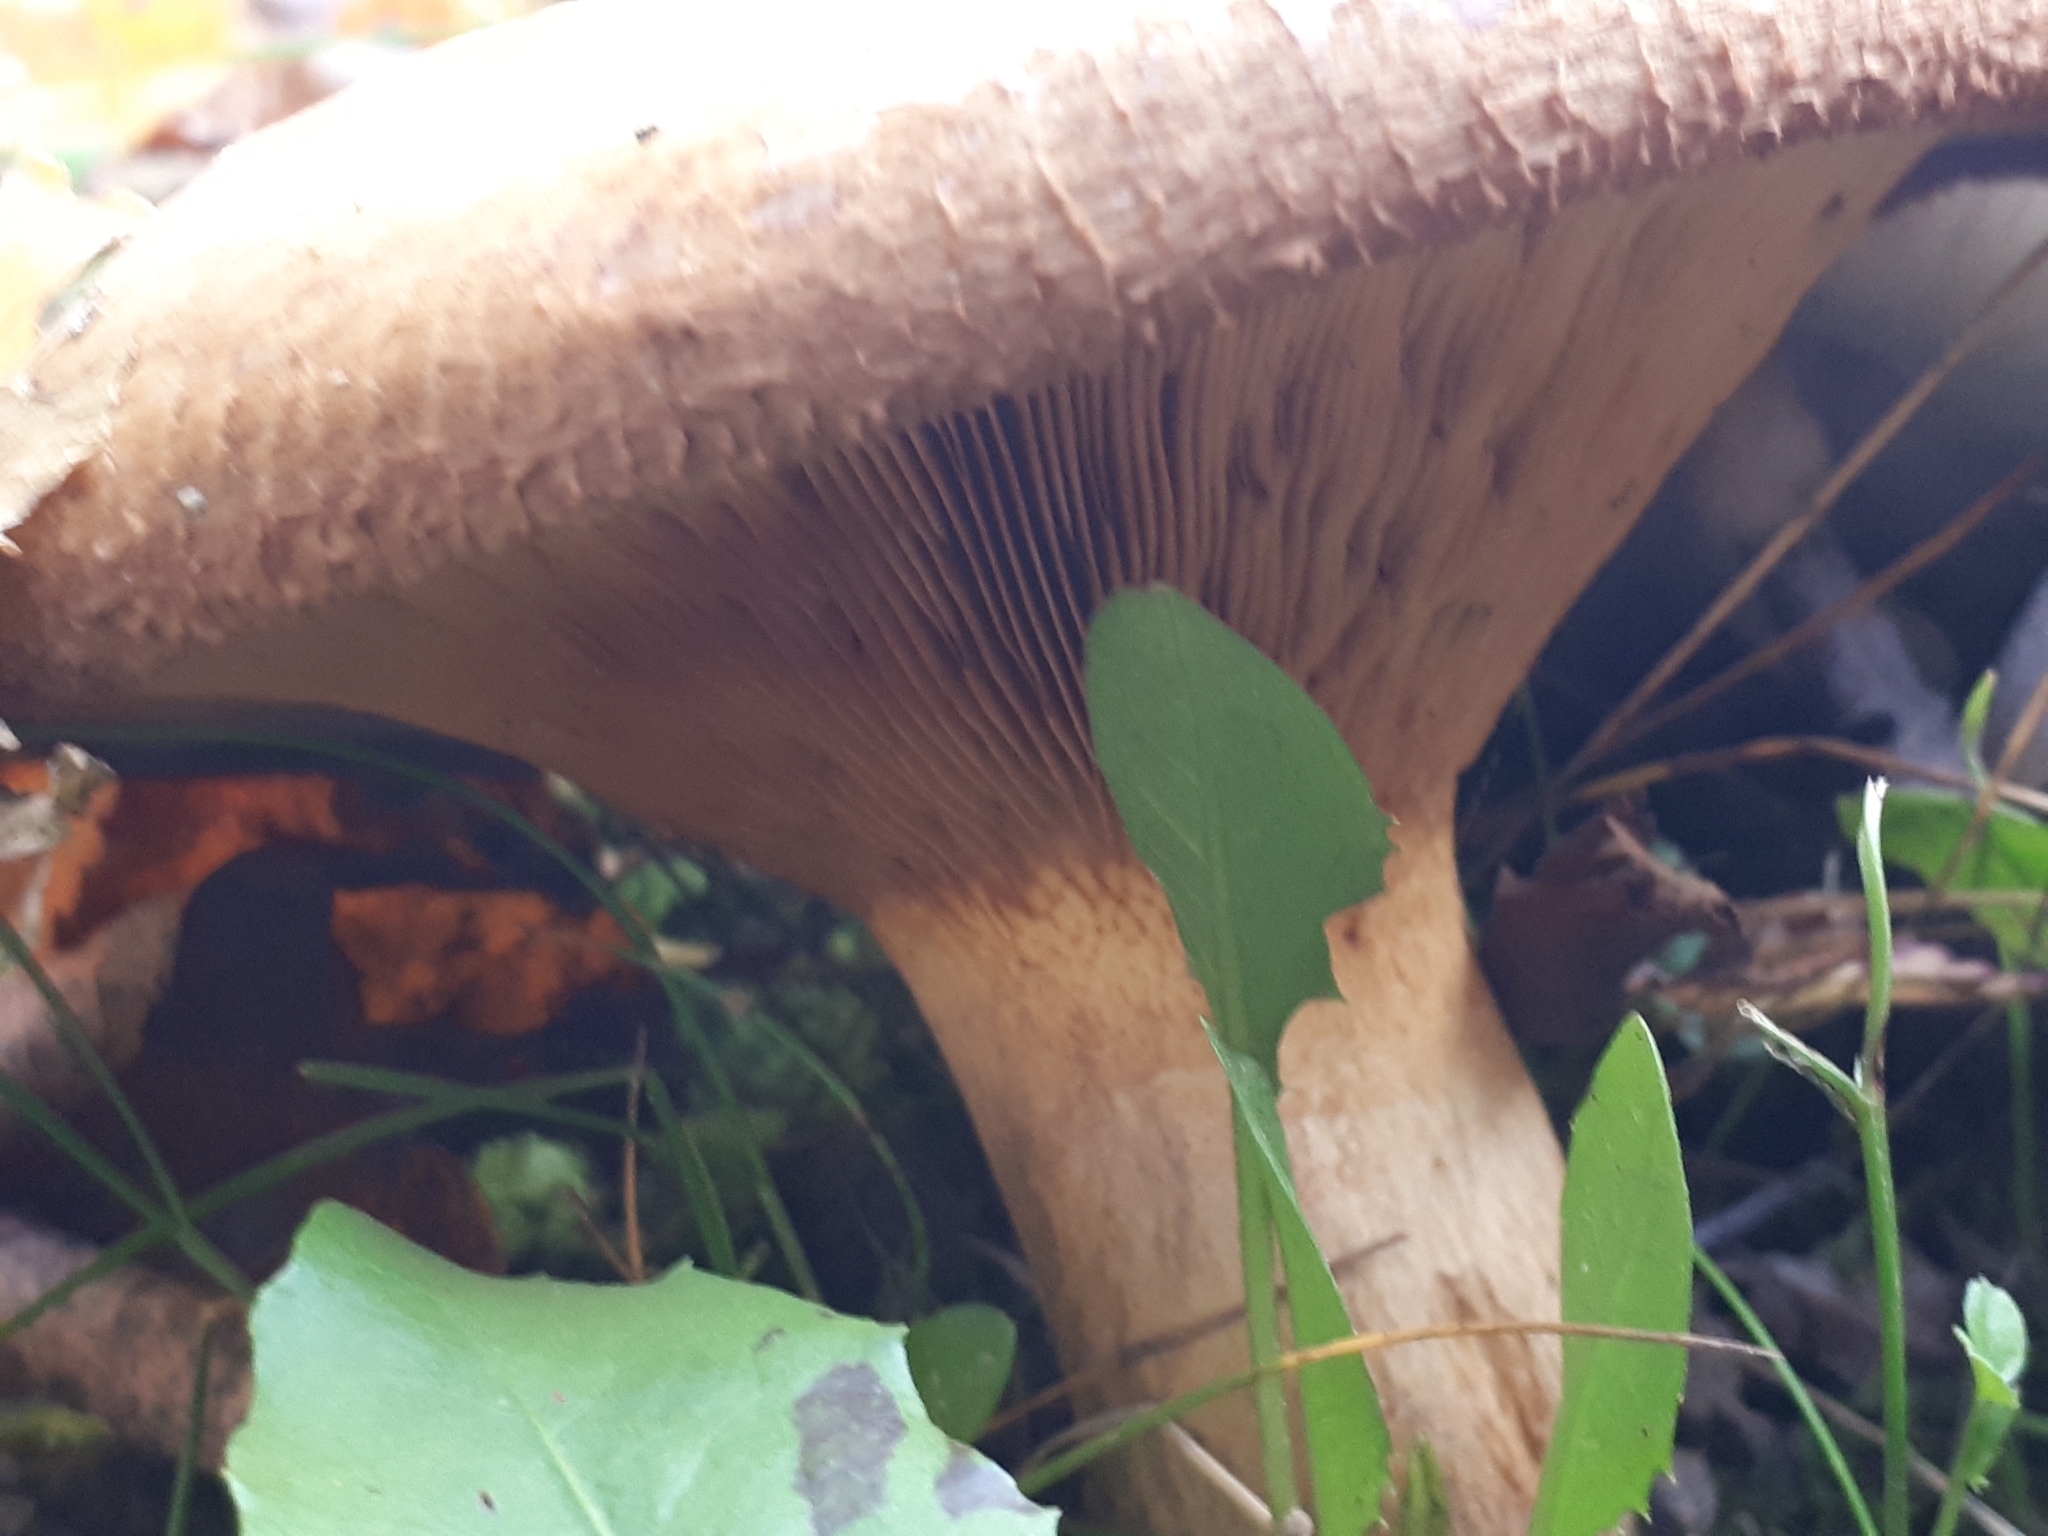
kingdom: Fungi
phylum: Basidiomycota
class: Agaricomycetes
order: Boletales
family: Paxillaceae
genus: Paxillus
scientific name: Paxillus ammoniavirescens
